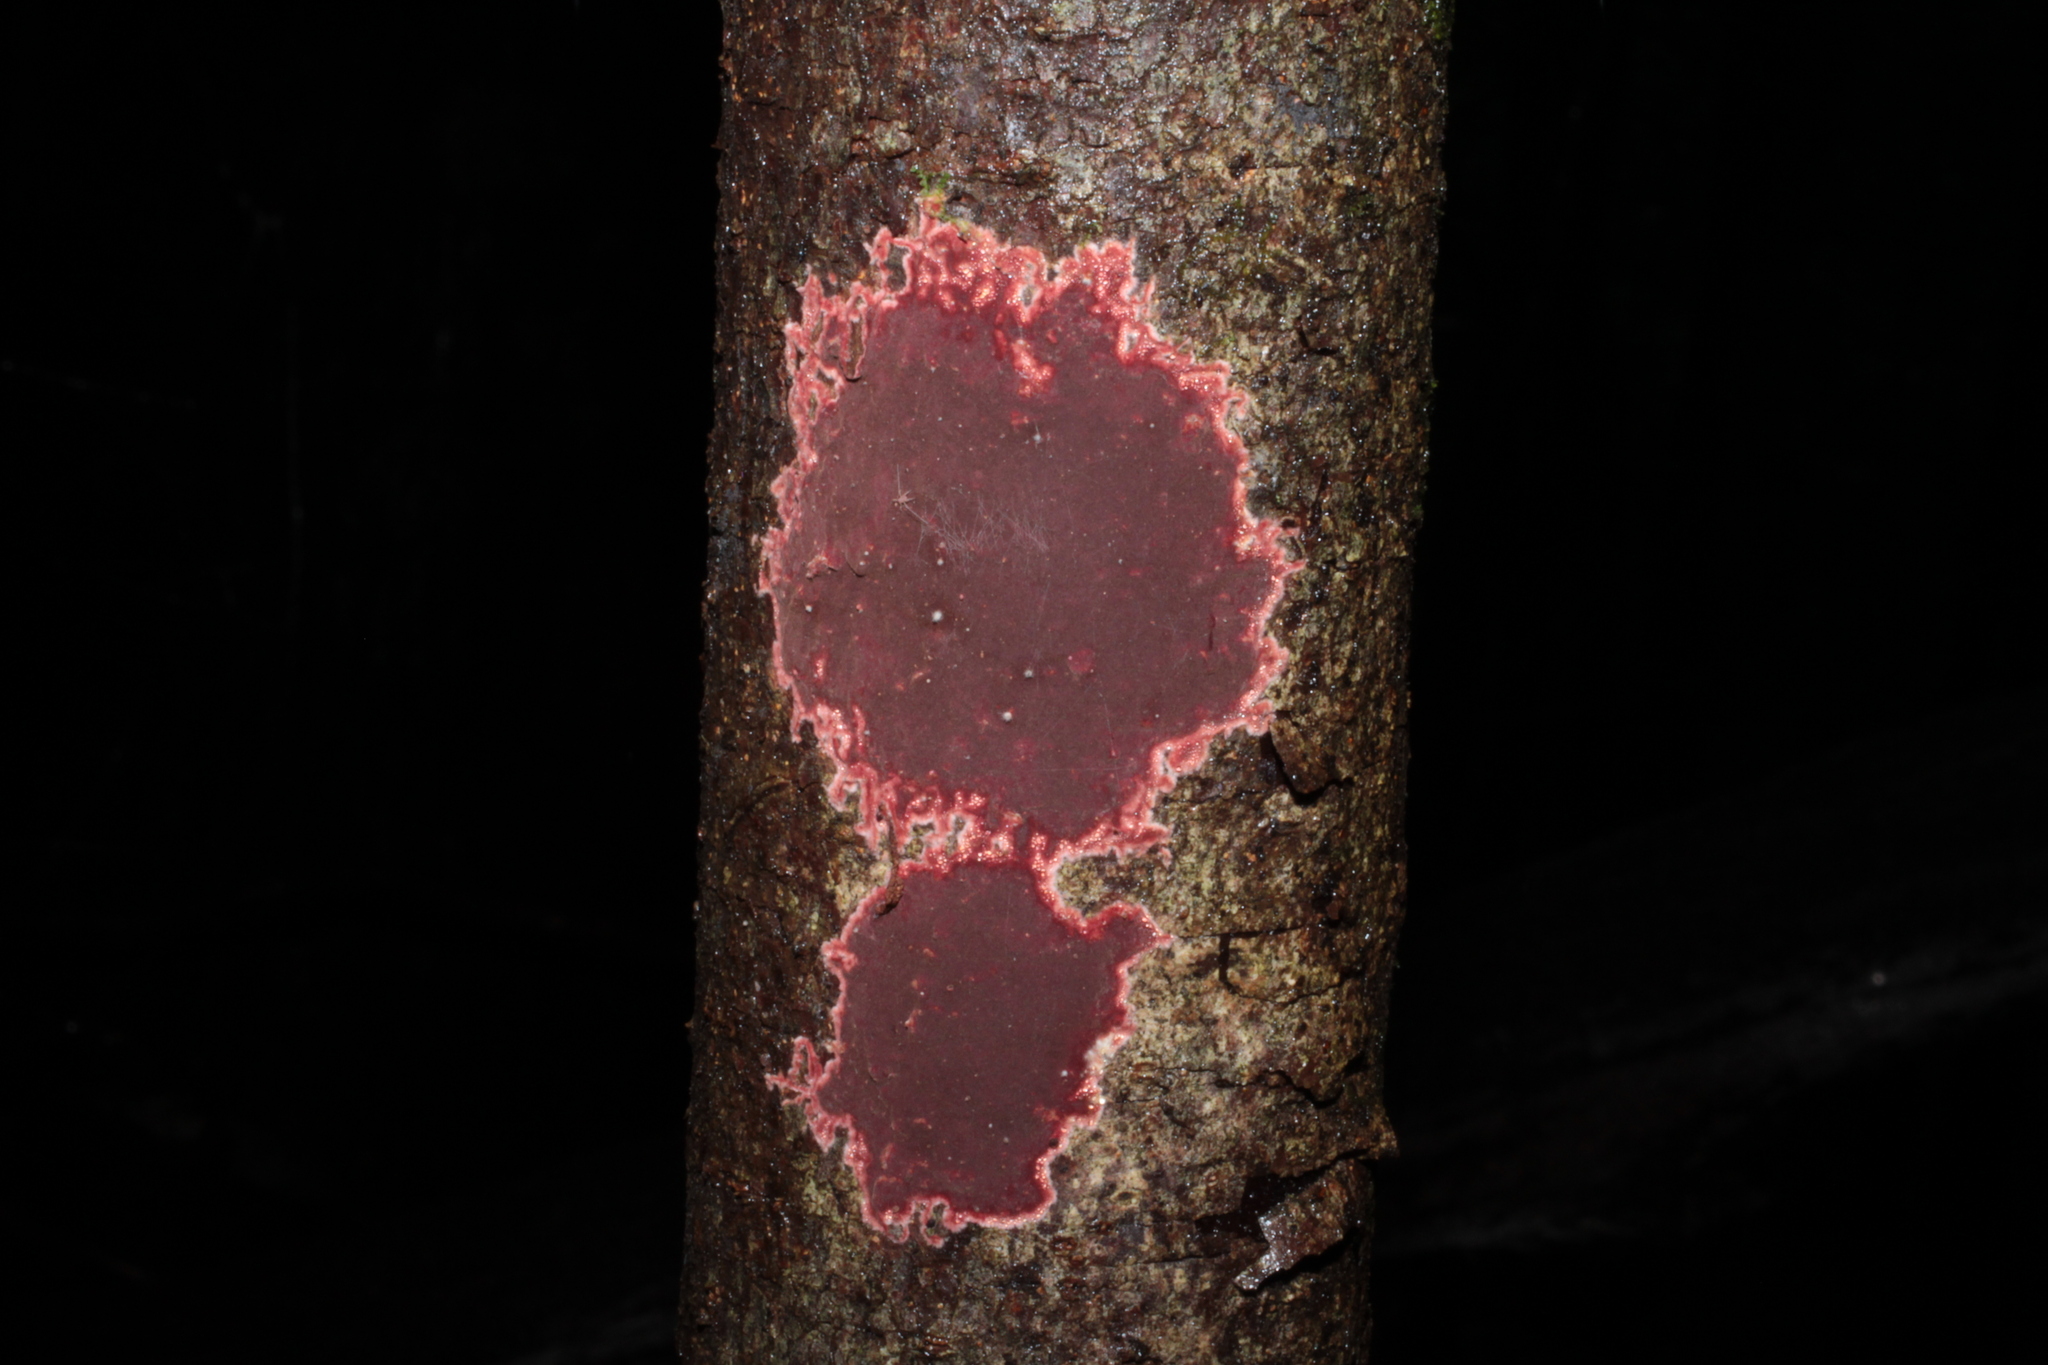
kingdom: Fungi
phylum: Ascomycota
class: Sordariomycetes
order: Xylariales
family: Hypoxylaceae
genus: Hypoxylon
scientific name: Hypoxylon rubiginosum
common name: Rusty woodwart
